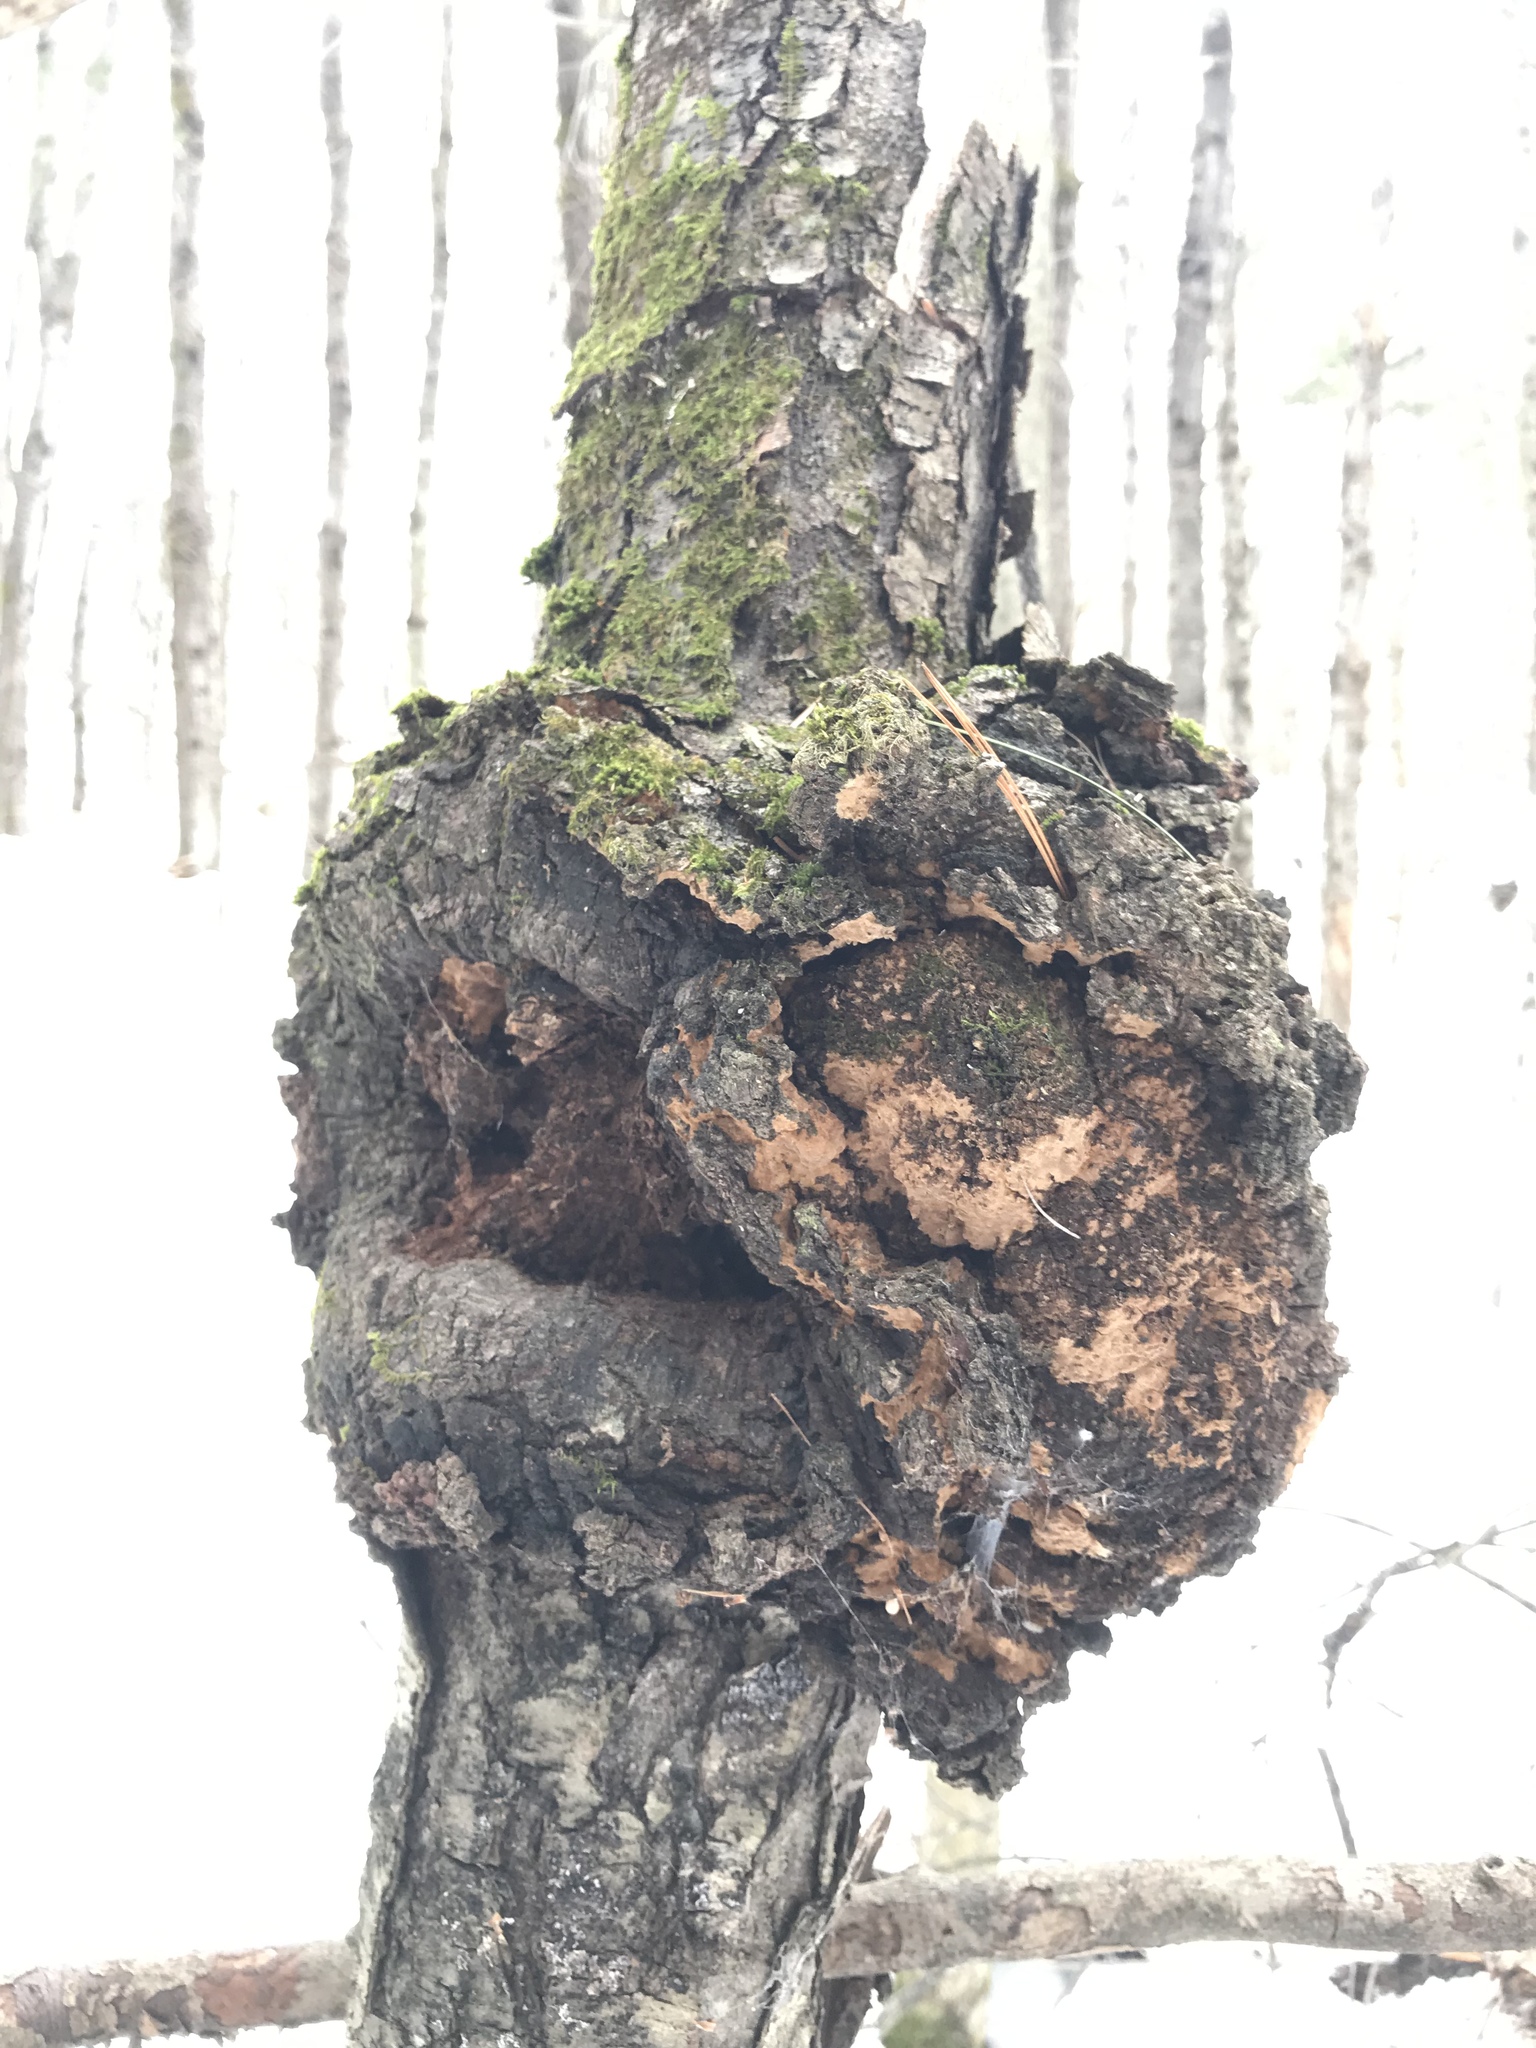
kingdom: Fungi
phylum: Ascomycota
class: Dothideomycetes
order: Venturiales
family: Venturiaceae
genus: Apiosporina
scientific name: Apiosporina morbosa
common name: Black knot
